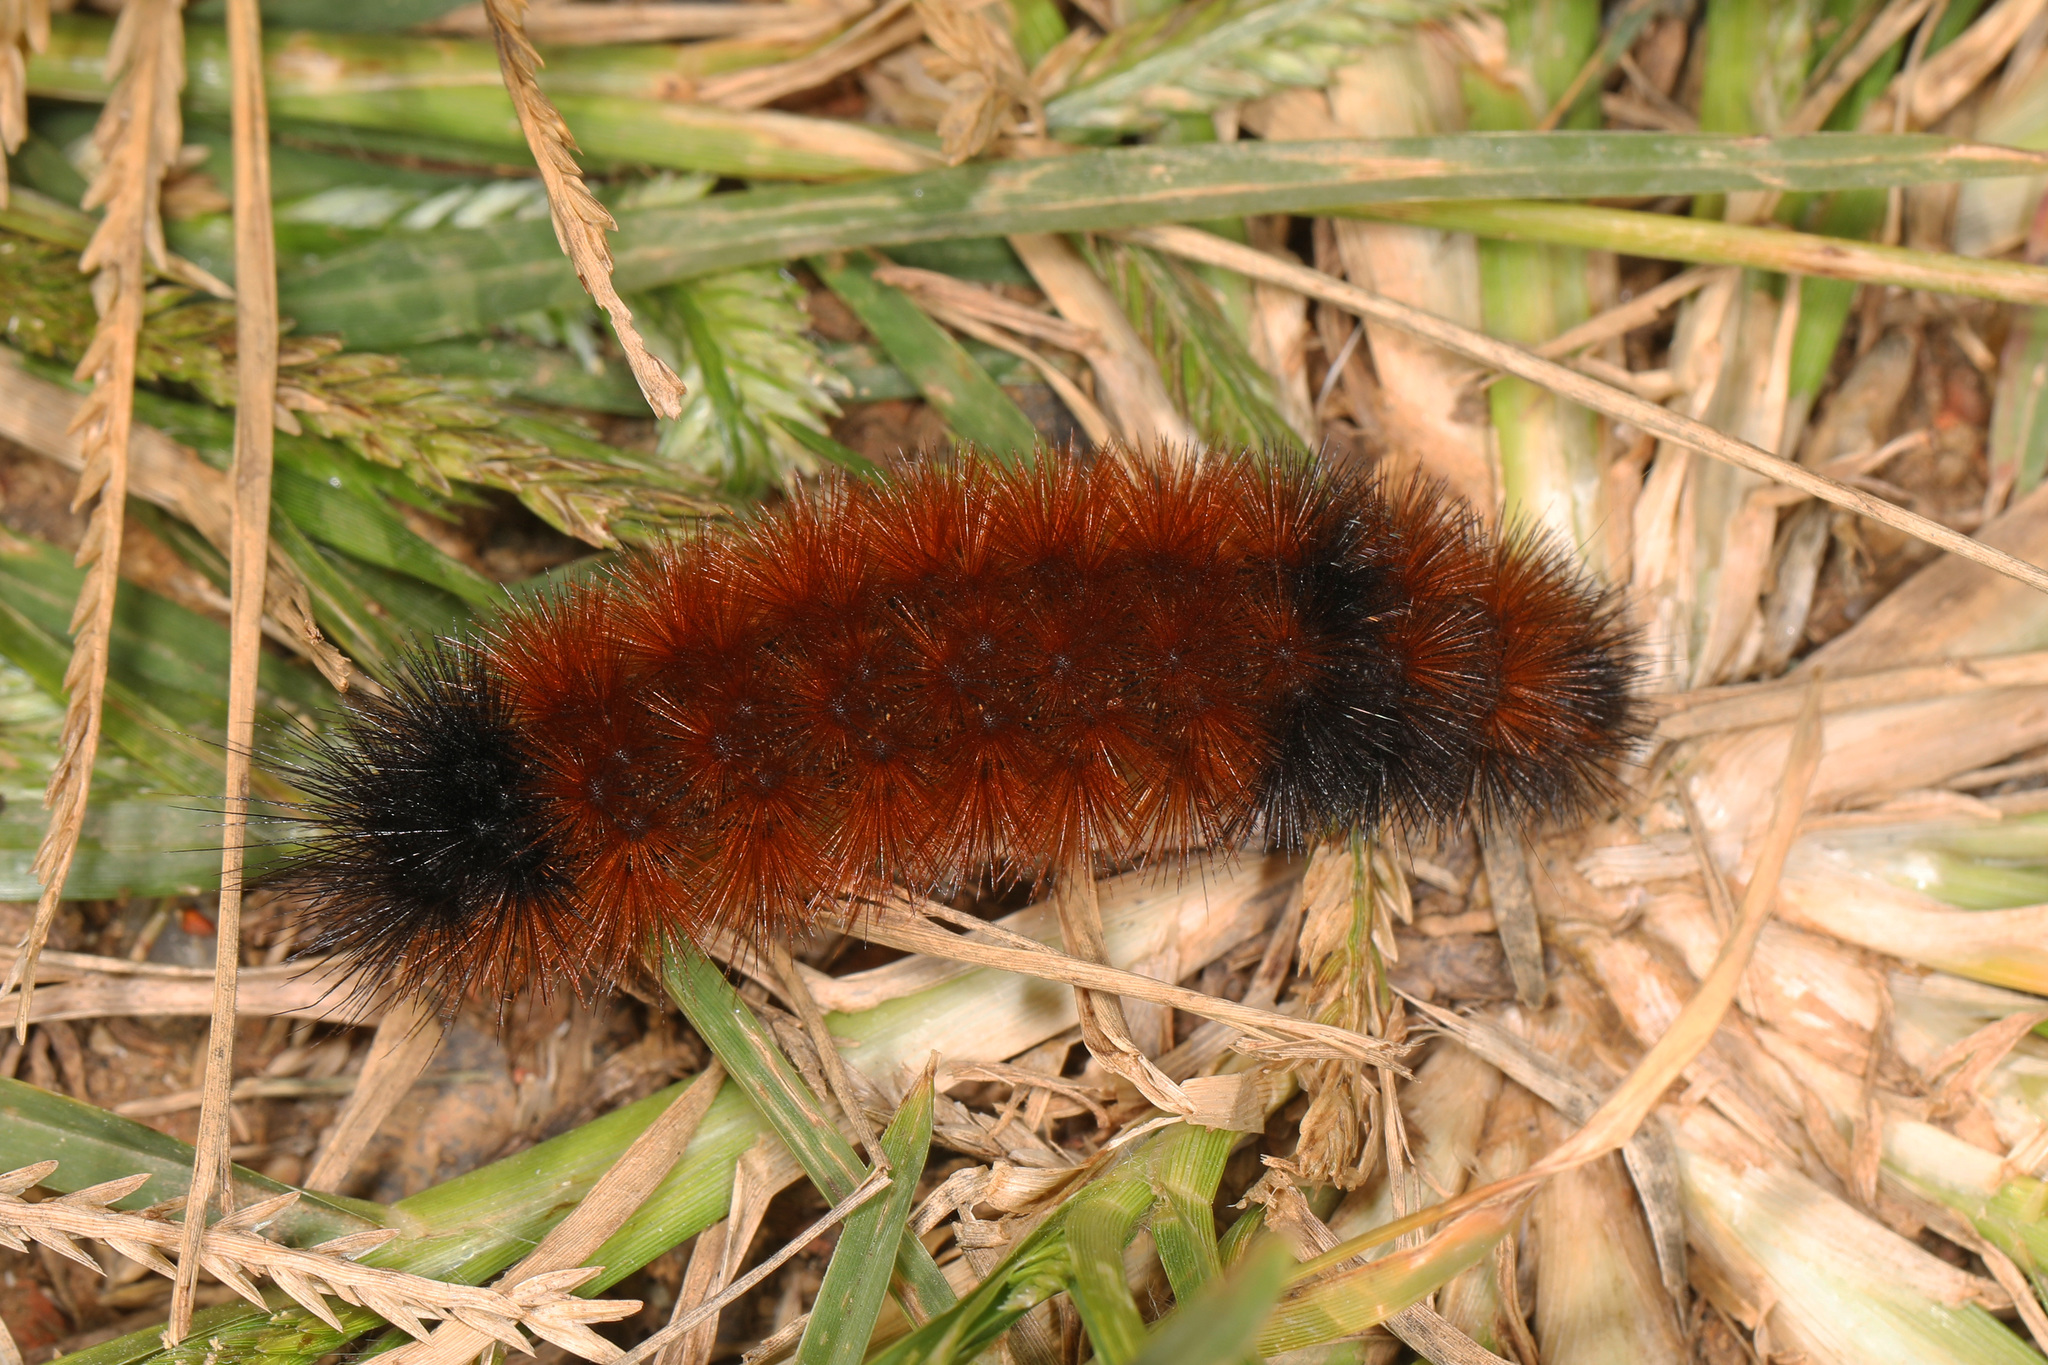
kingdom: Animalia
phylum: Arthropoda
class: Insecta
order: Lepidoptera
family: Erebidae
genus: Pyrrharctia
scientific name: Pyrrharctia isabella
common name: Isabella tiger moth
